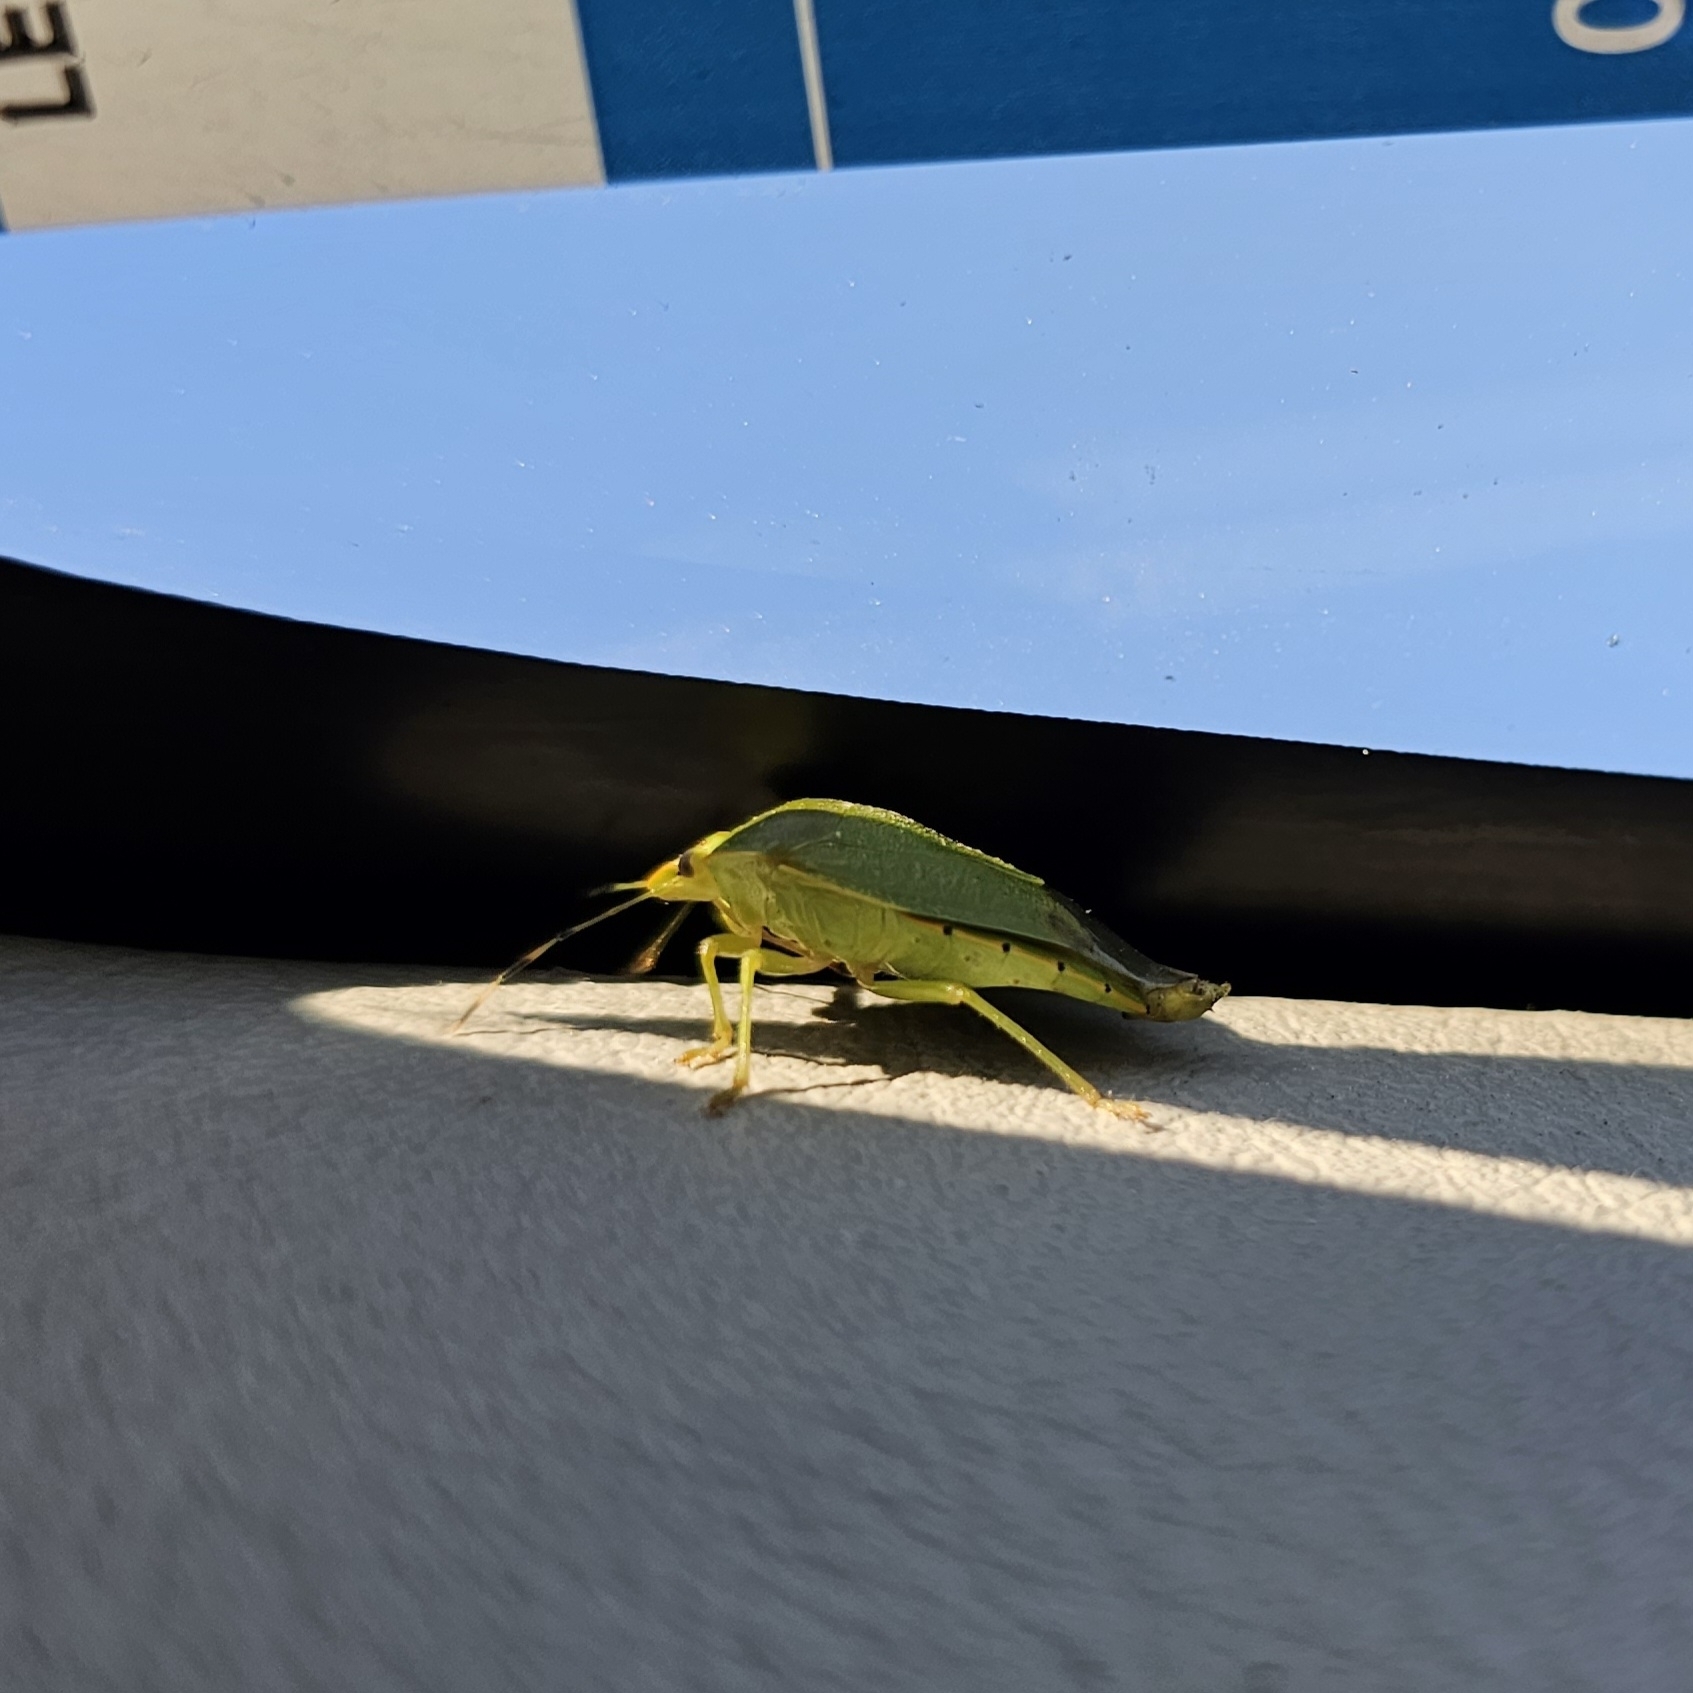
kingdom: Animalia
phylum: Arthropoda
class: Insecta
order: Hemiptera
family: Pentatomidae
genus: Chinavia
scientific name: Chinavia hilaris
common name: Green stink bug
